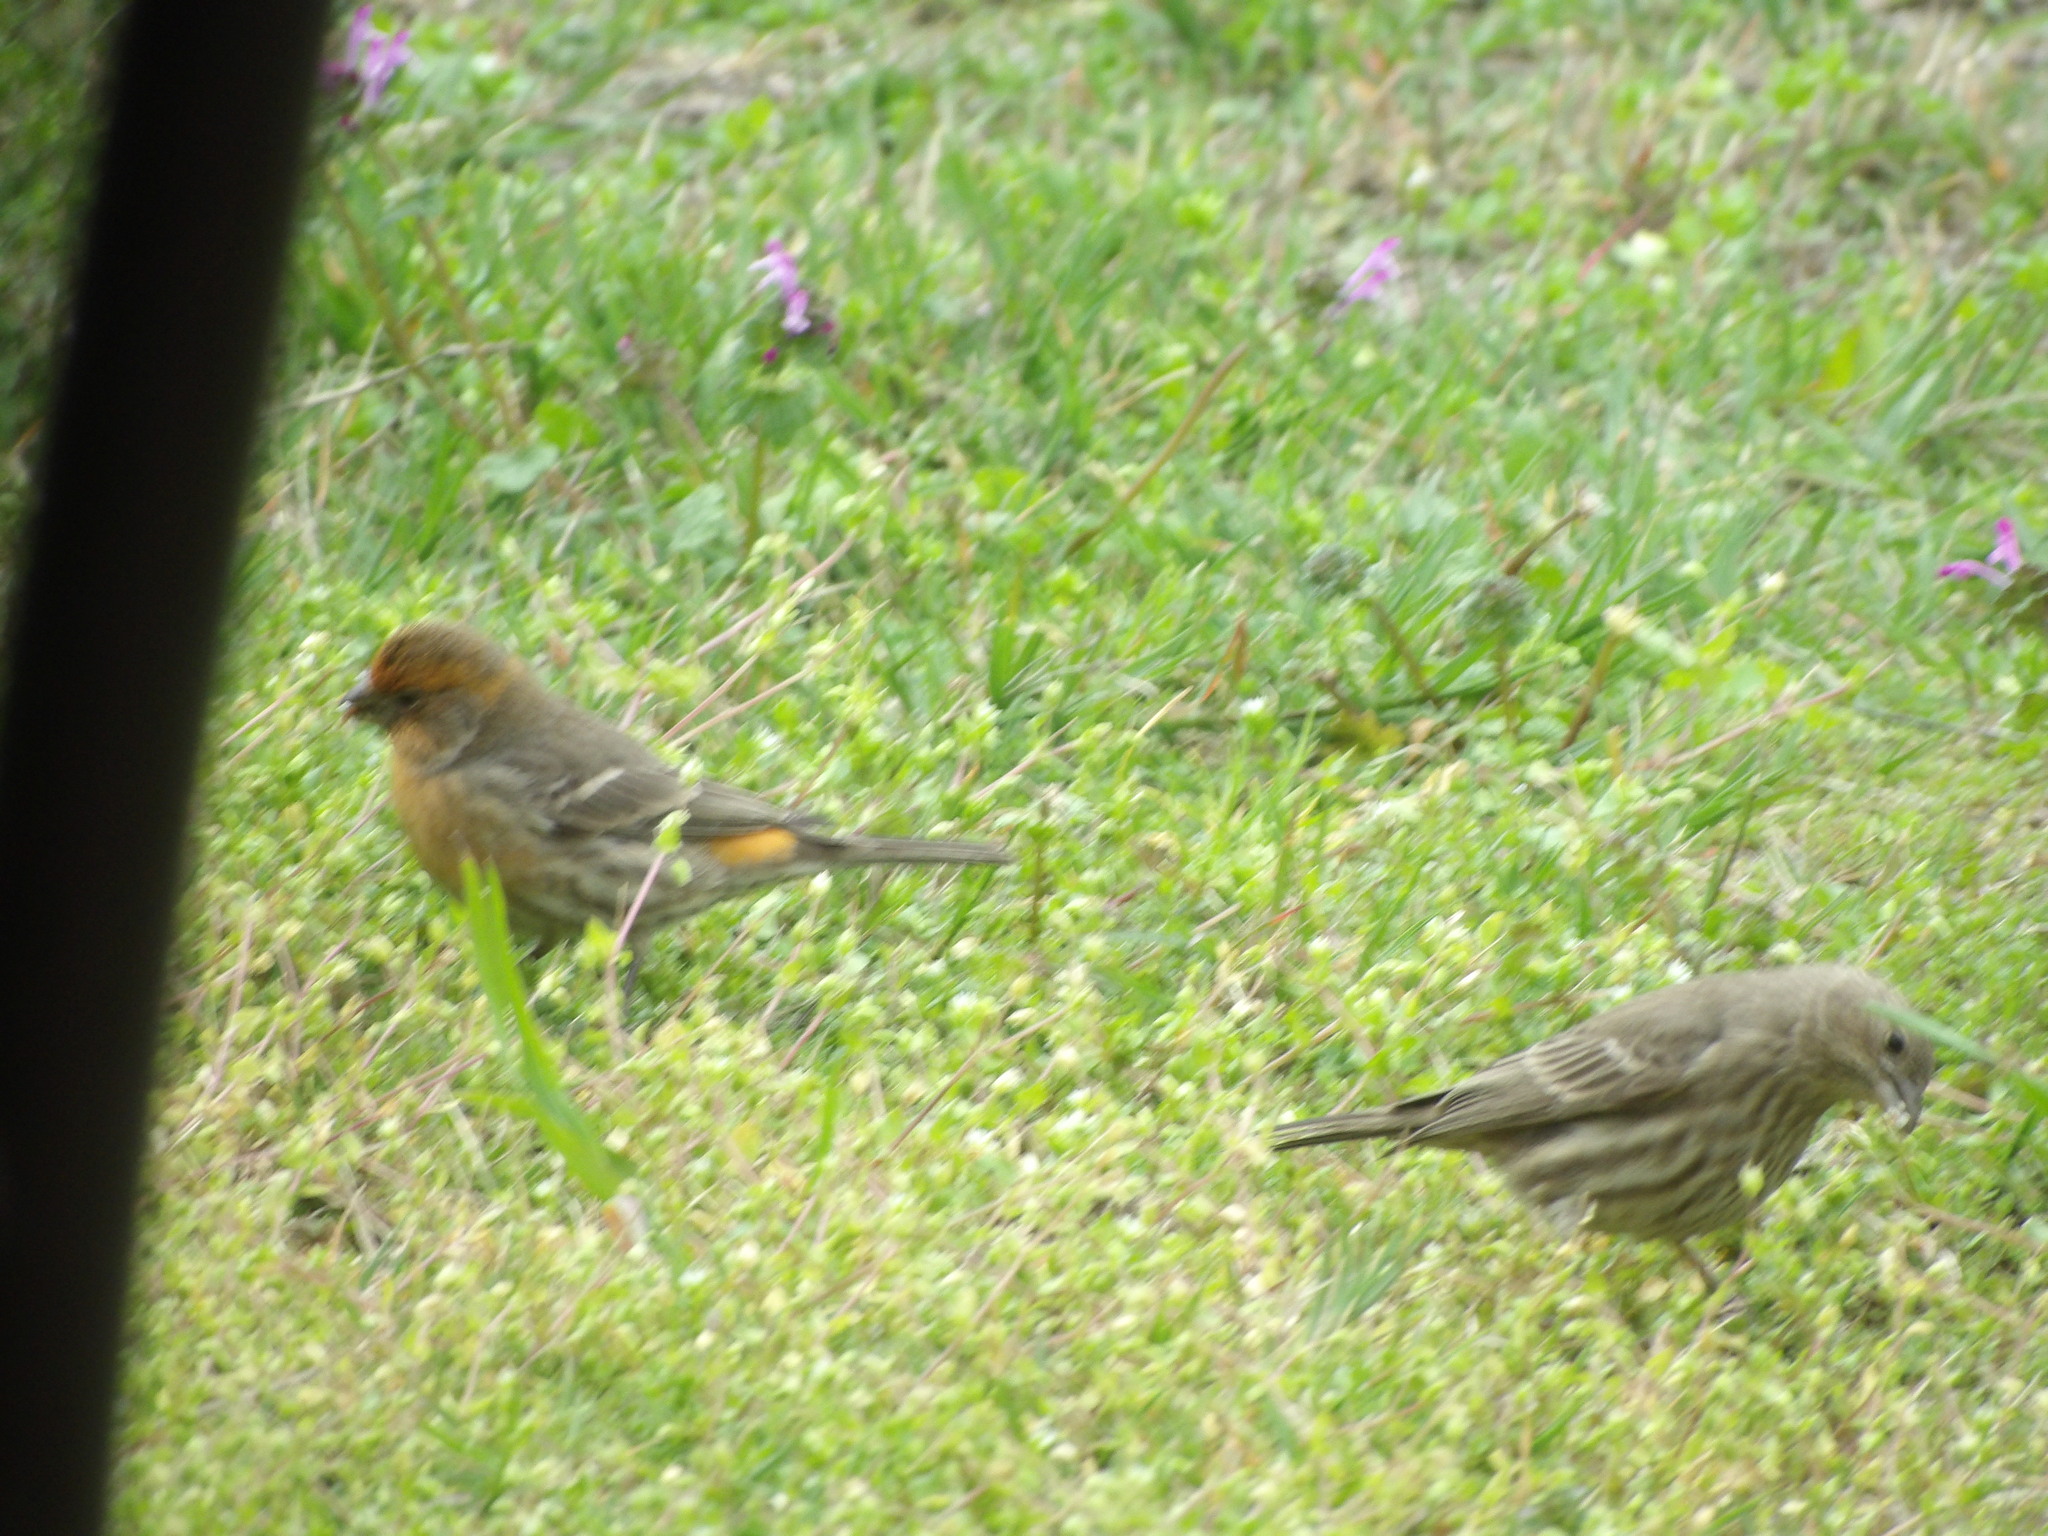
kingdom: Animalia
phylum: Chordata
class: Aves
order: Passeriformes
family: Fringillidae
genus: Haemorhous
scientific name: Haemorhous mexicanus
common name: House finch
